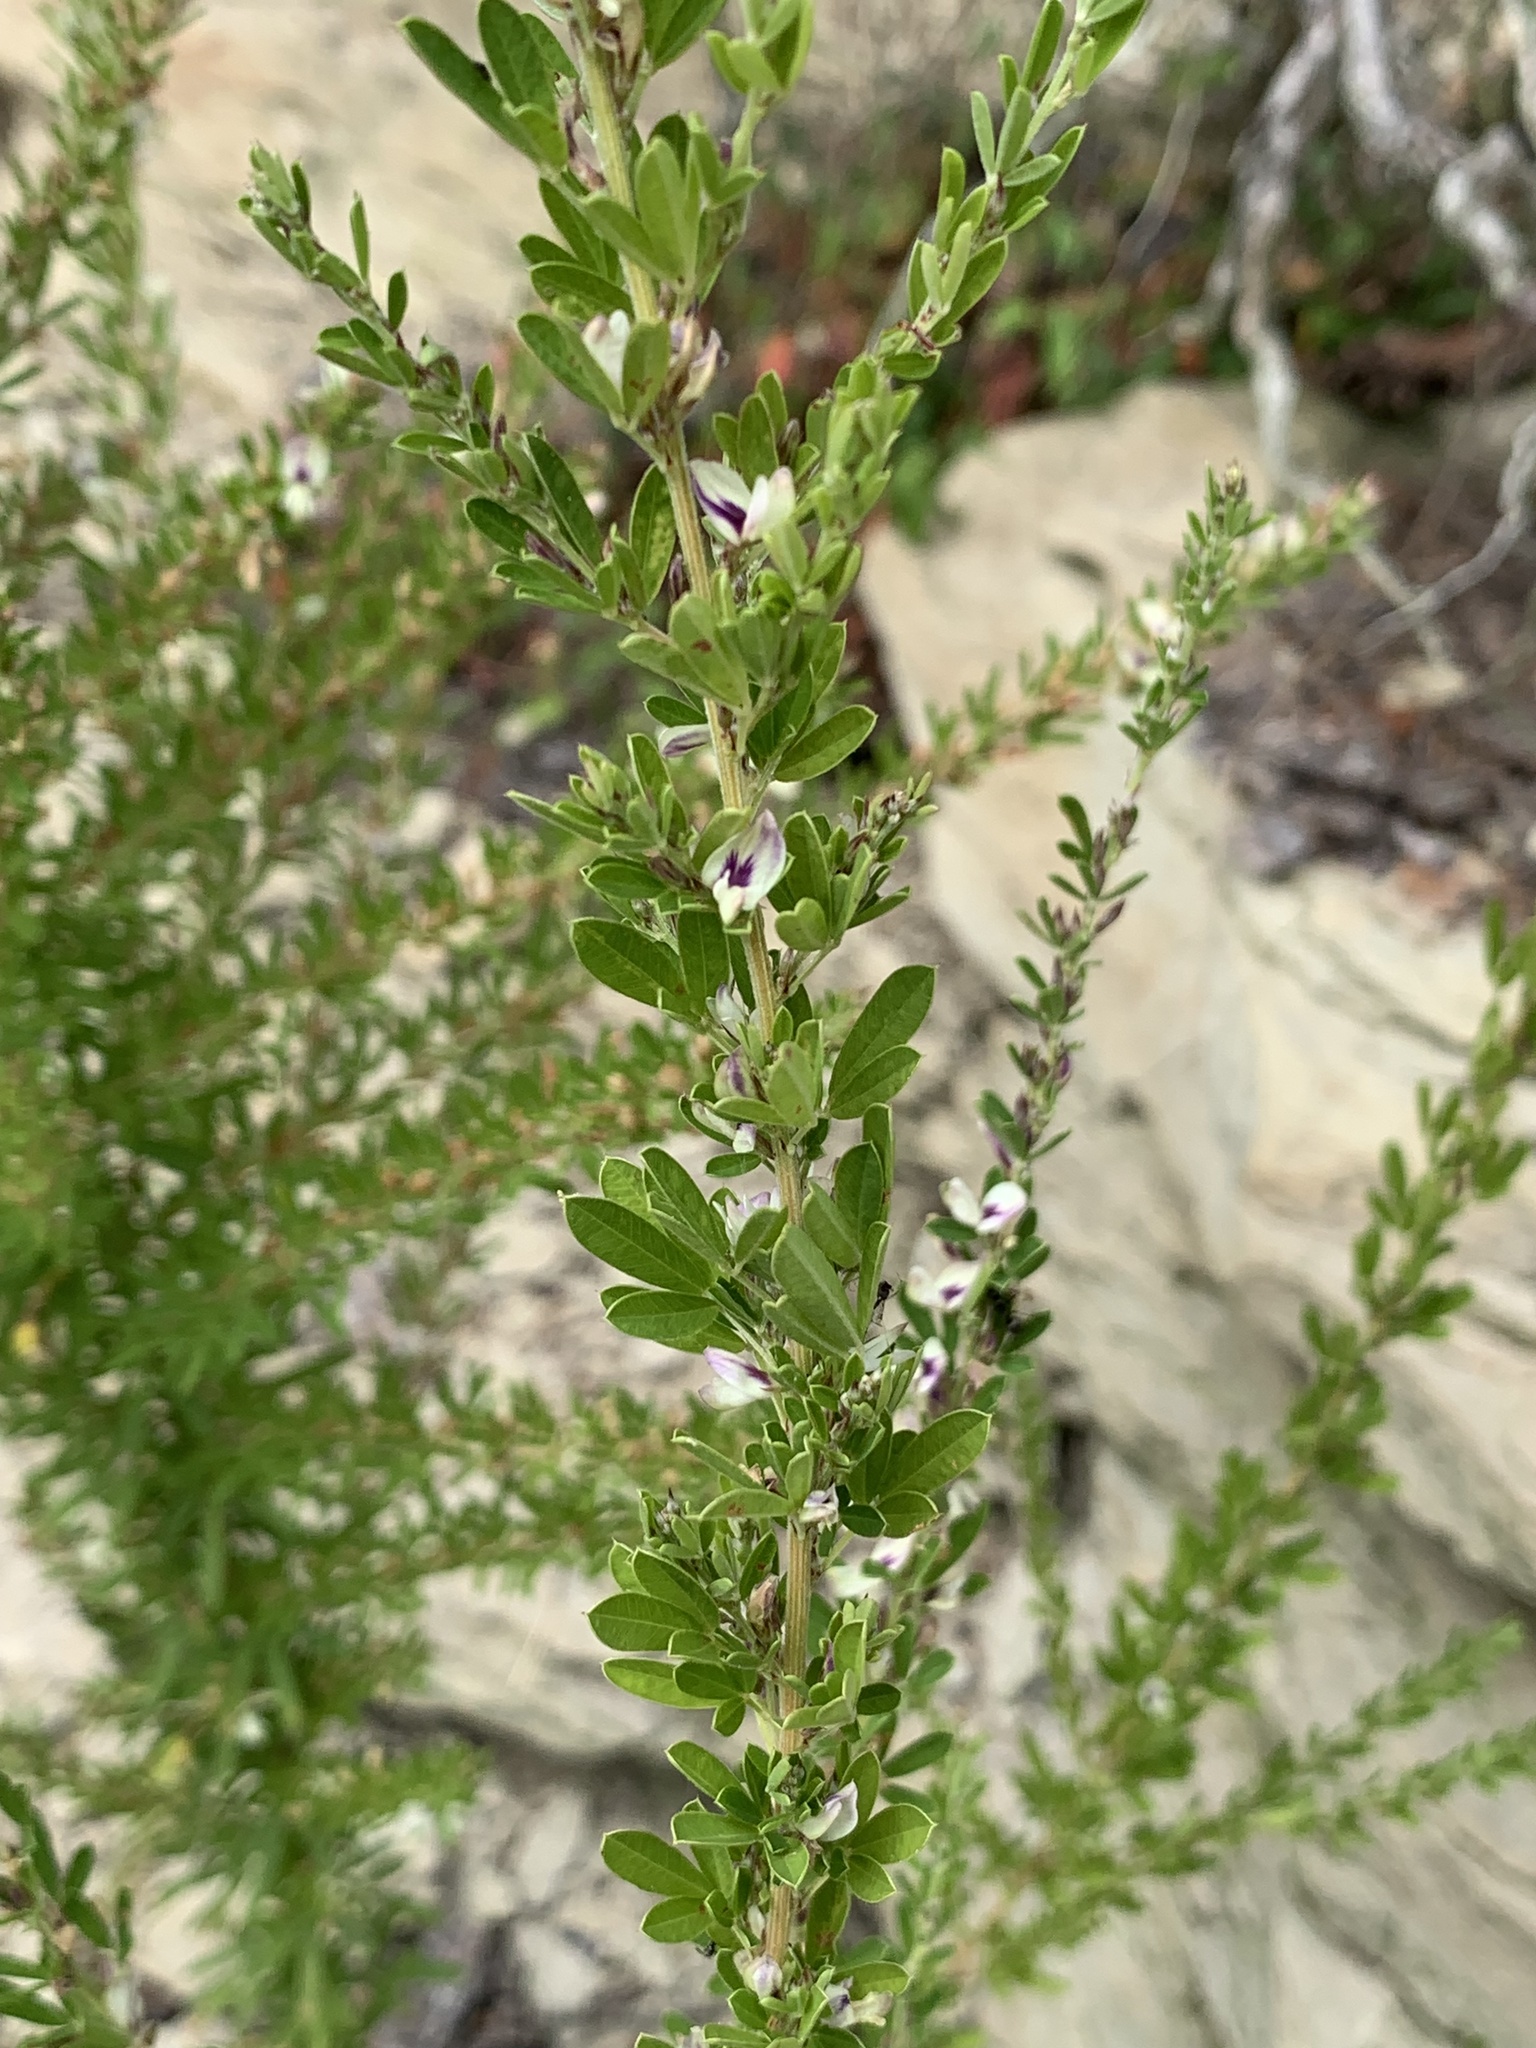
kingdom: Plantae
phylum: Tracheophyta
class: Magnoliopsida
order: Fabales
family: Fabaceae
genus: Lespedeza
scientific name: Lespedeza cuneata
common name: Chinese bush-clover
